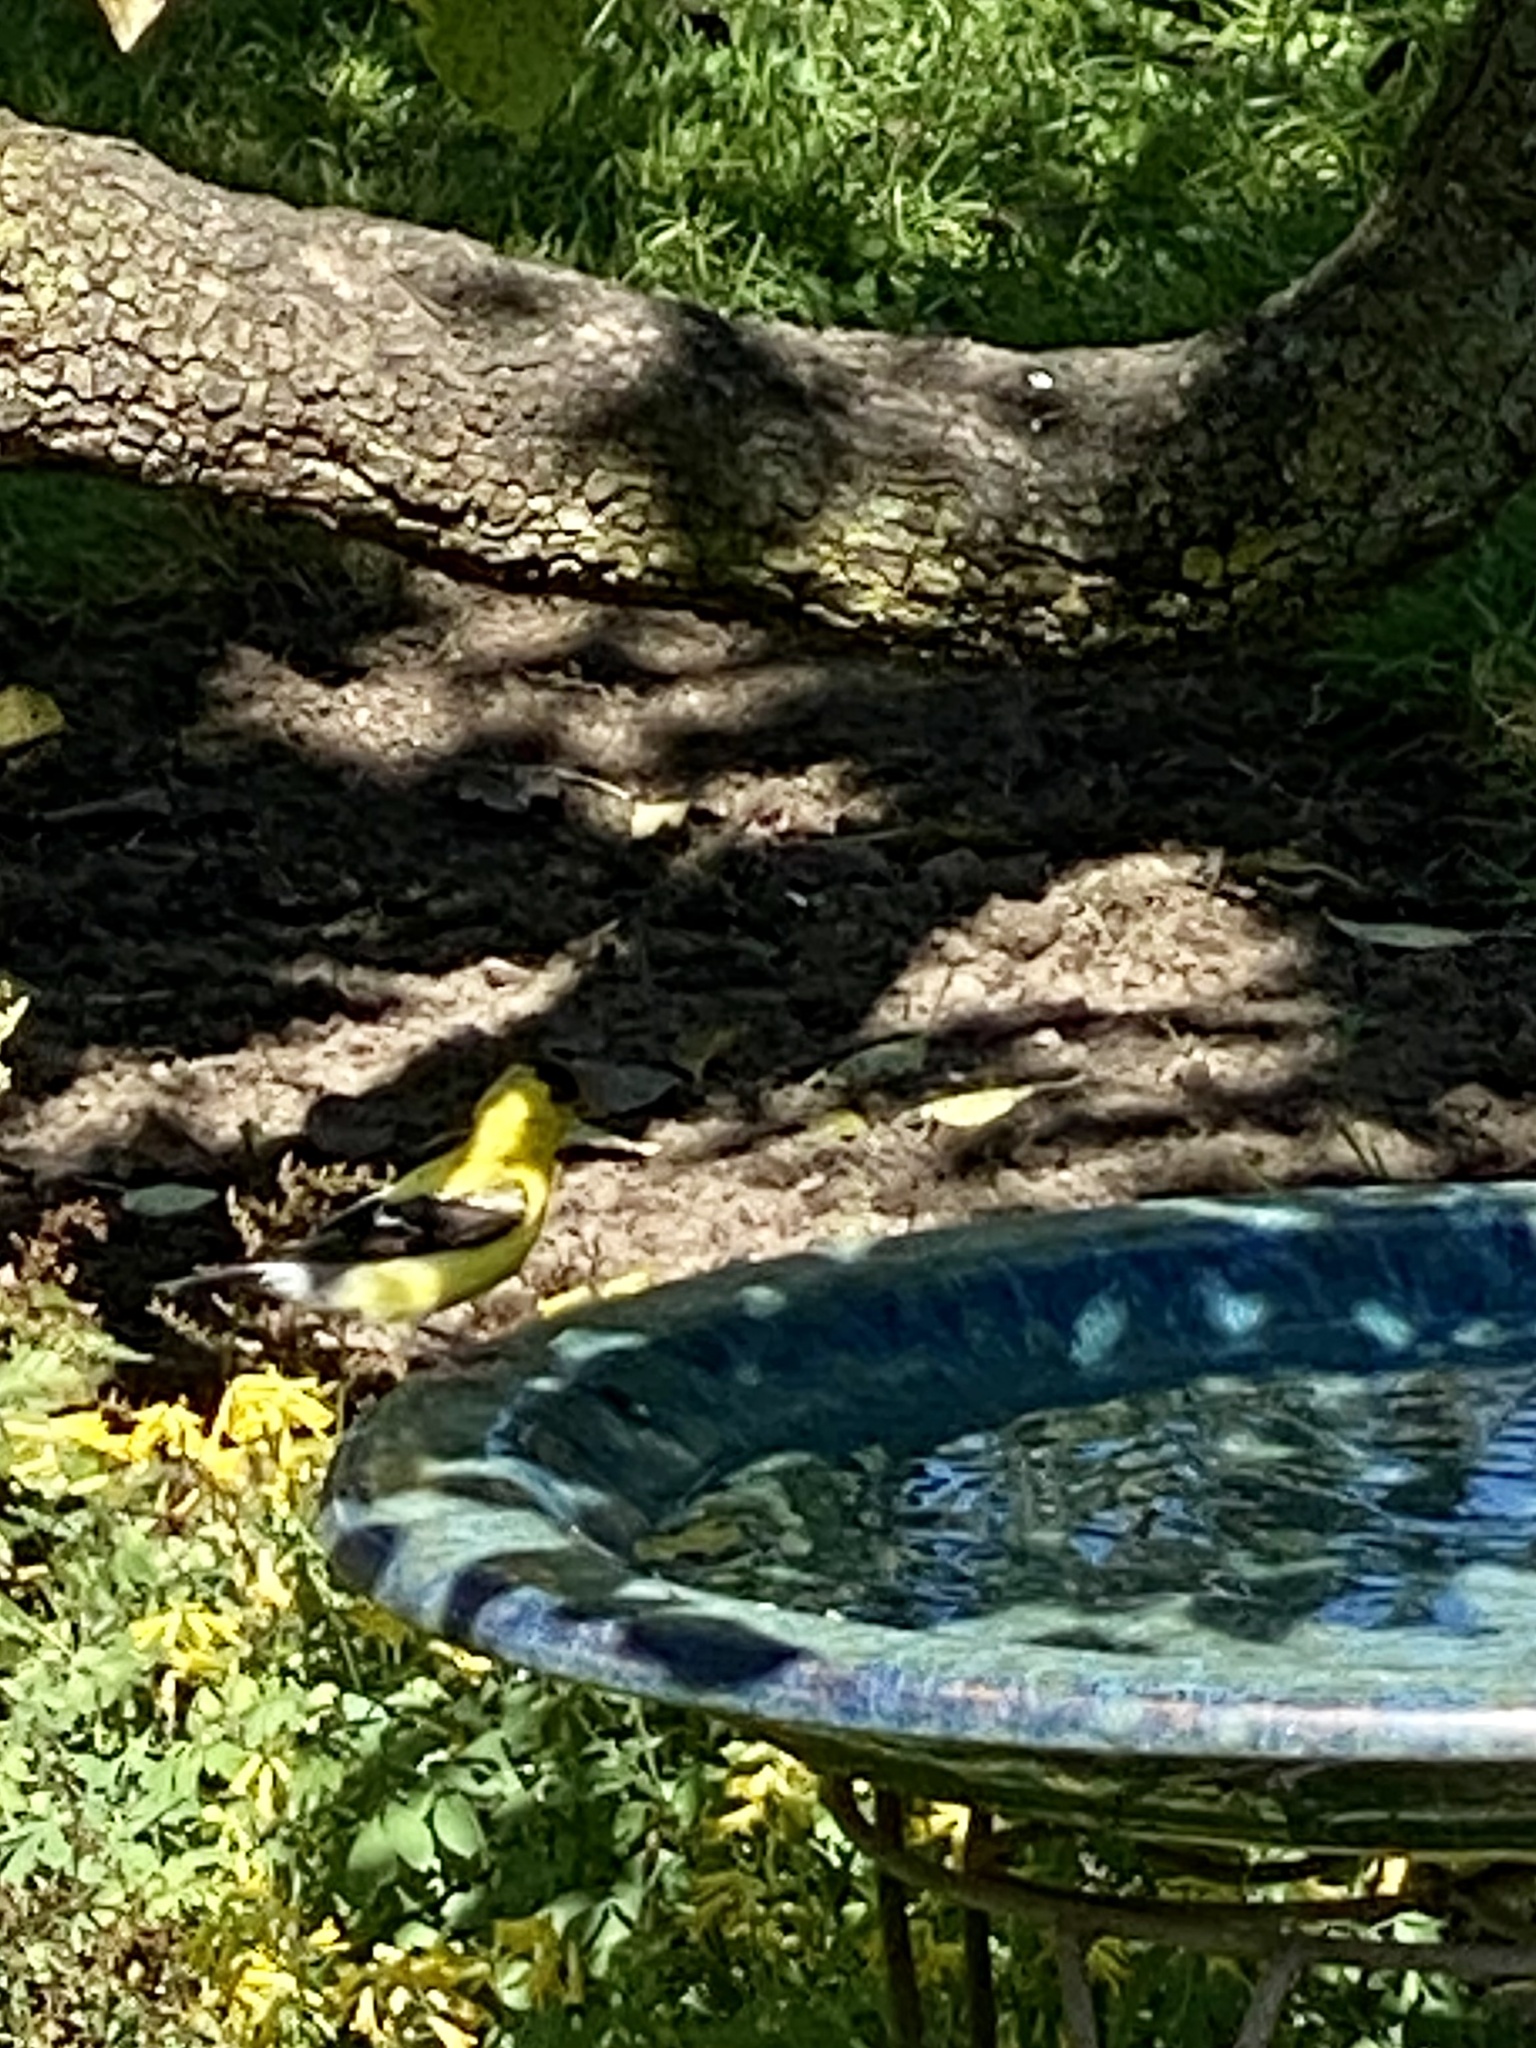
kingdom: Animalia
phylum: Chordata
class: Aves
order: Passeriformes
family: Fringillidae
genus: Spinus
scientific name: Spinus tristis
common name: American goldfinch
